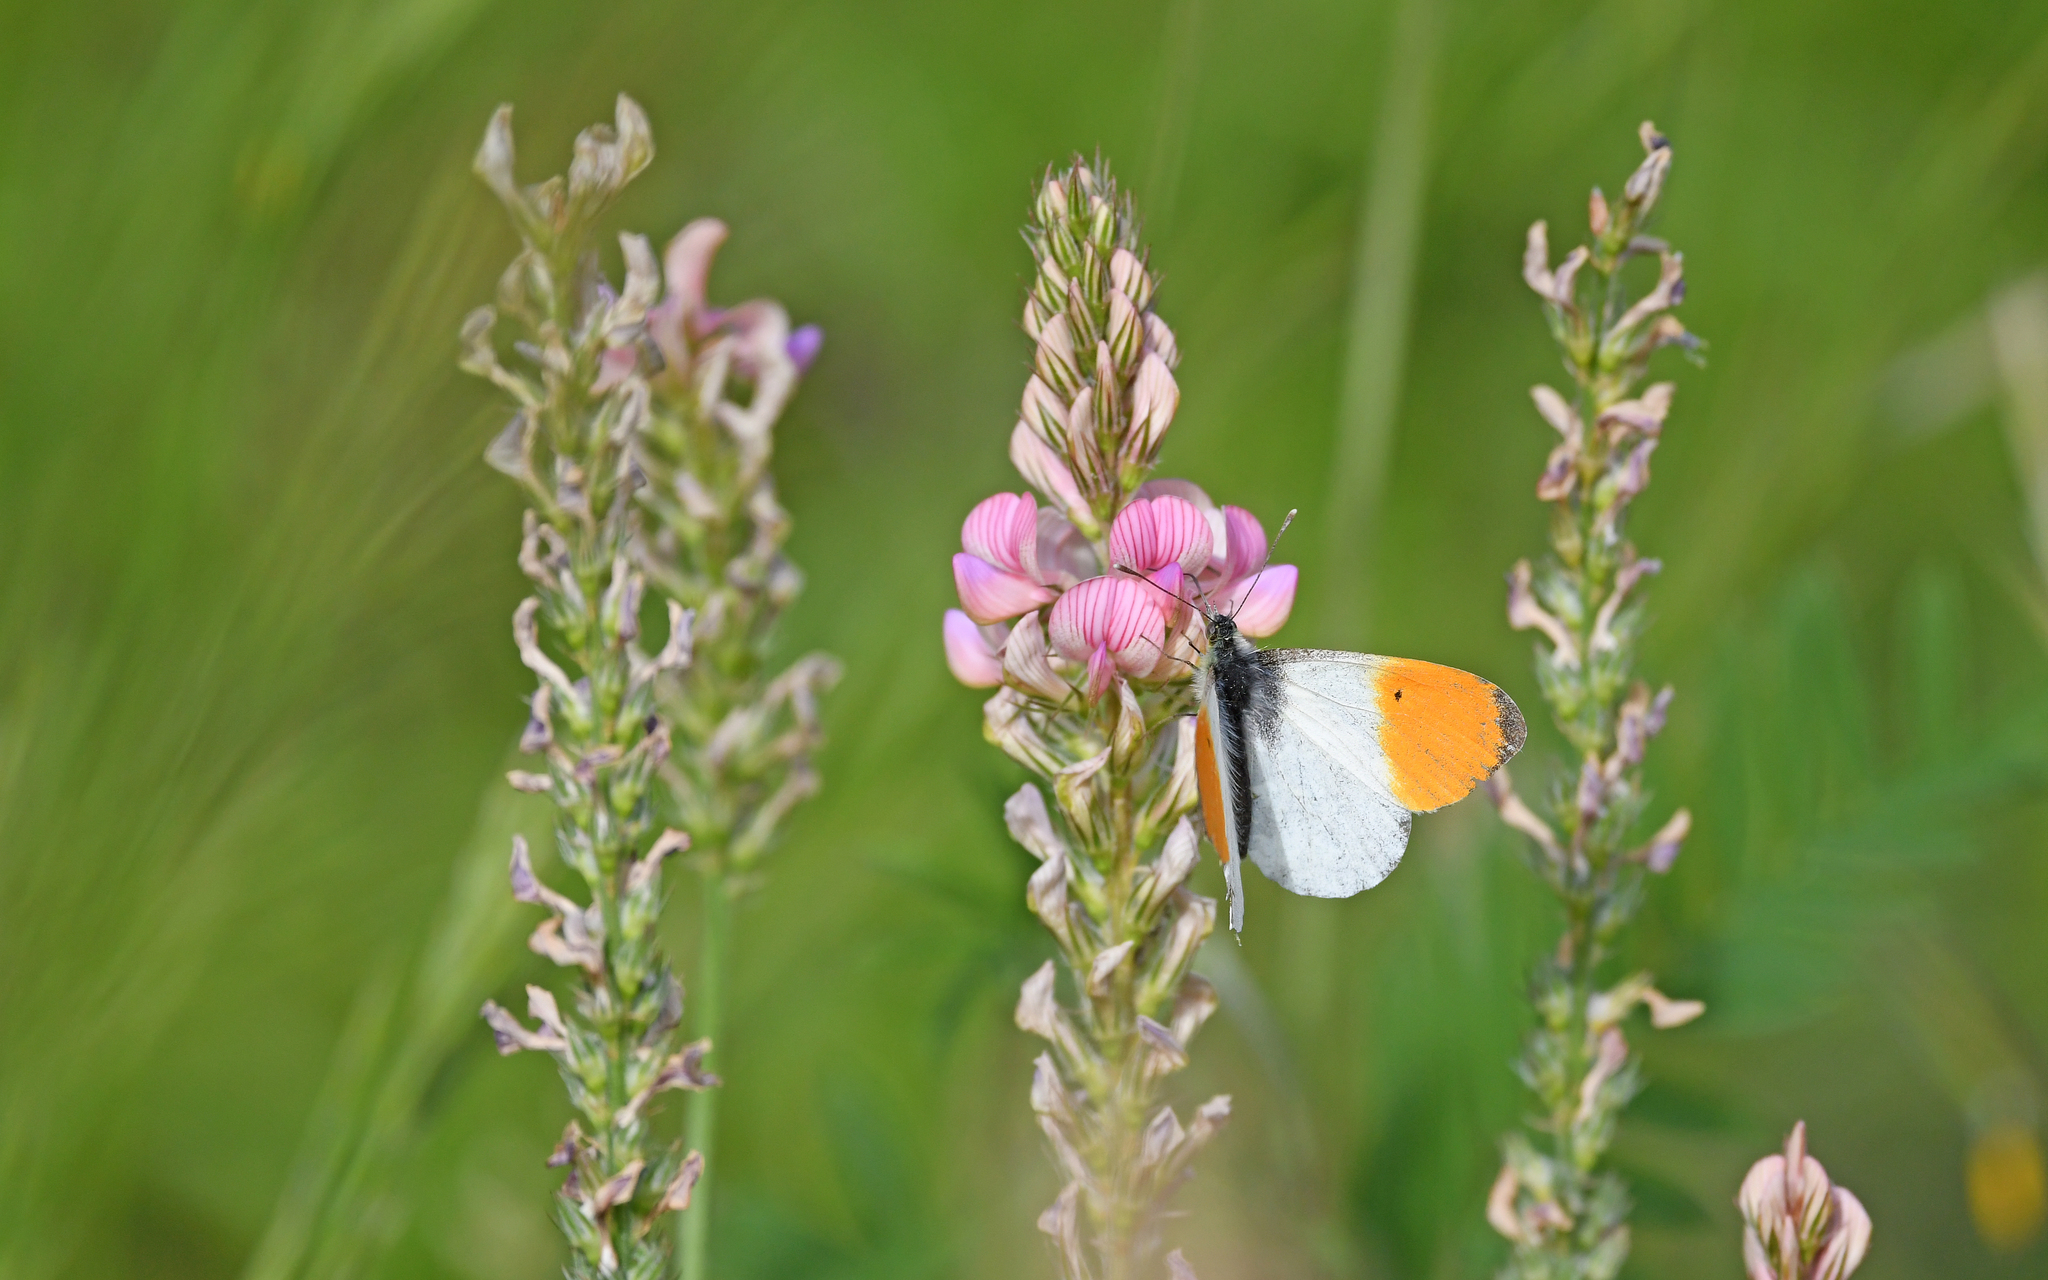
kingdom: Animalia
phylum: Arthropoda
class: Insecta
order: Lepidoptera
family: Pieridae
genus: Anthocharis
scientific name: Anthocharis cardamines
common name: Orange-tip
